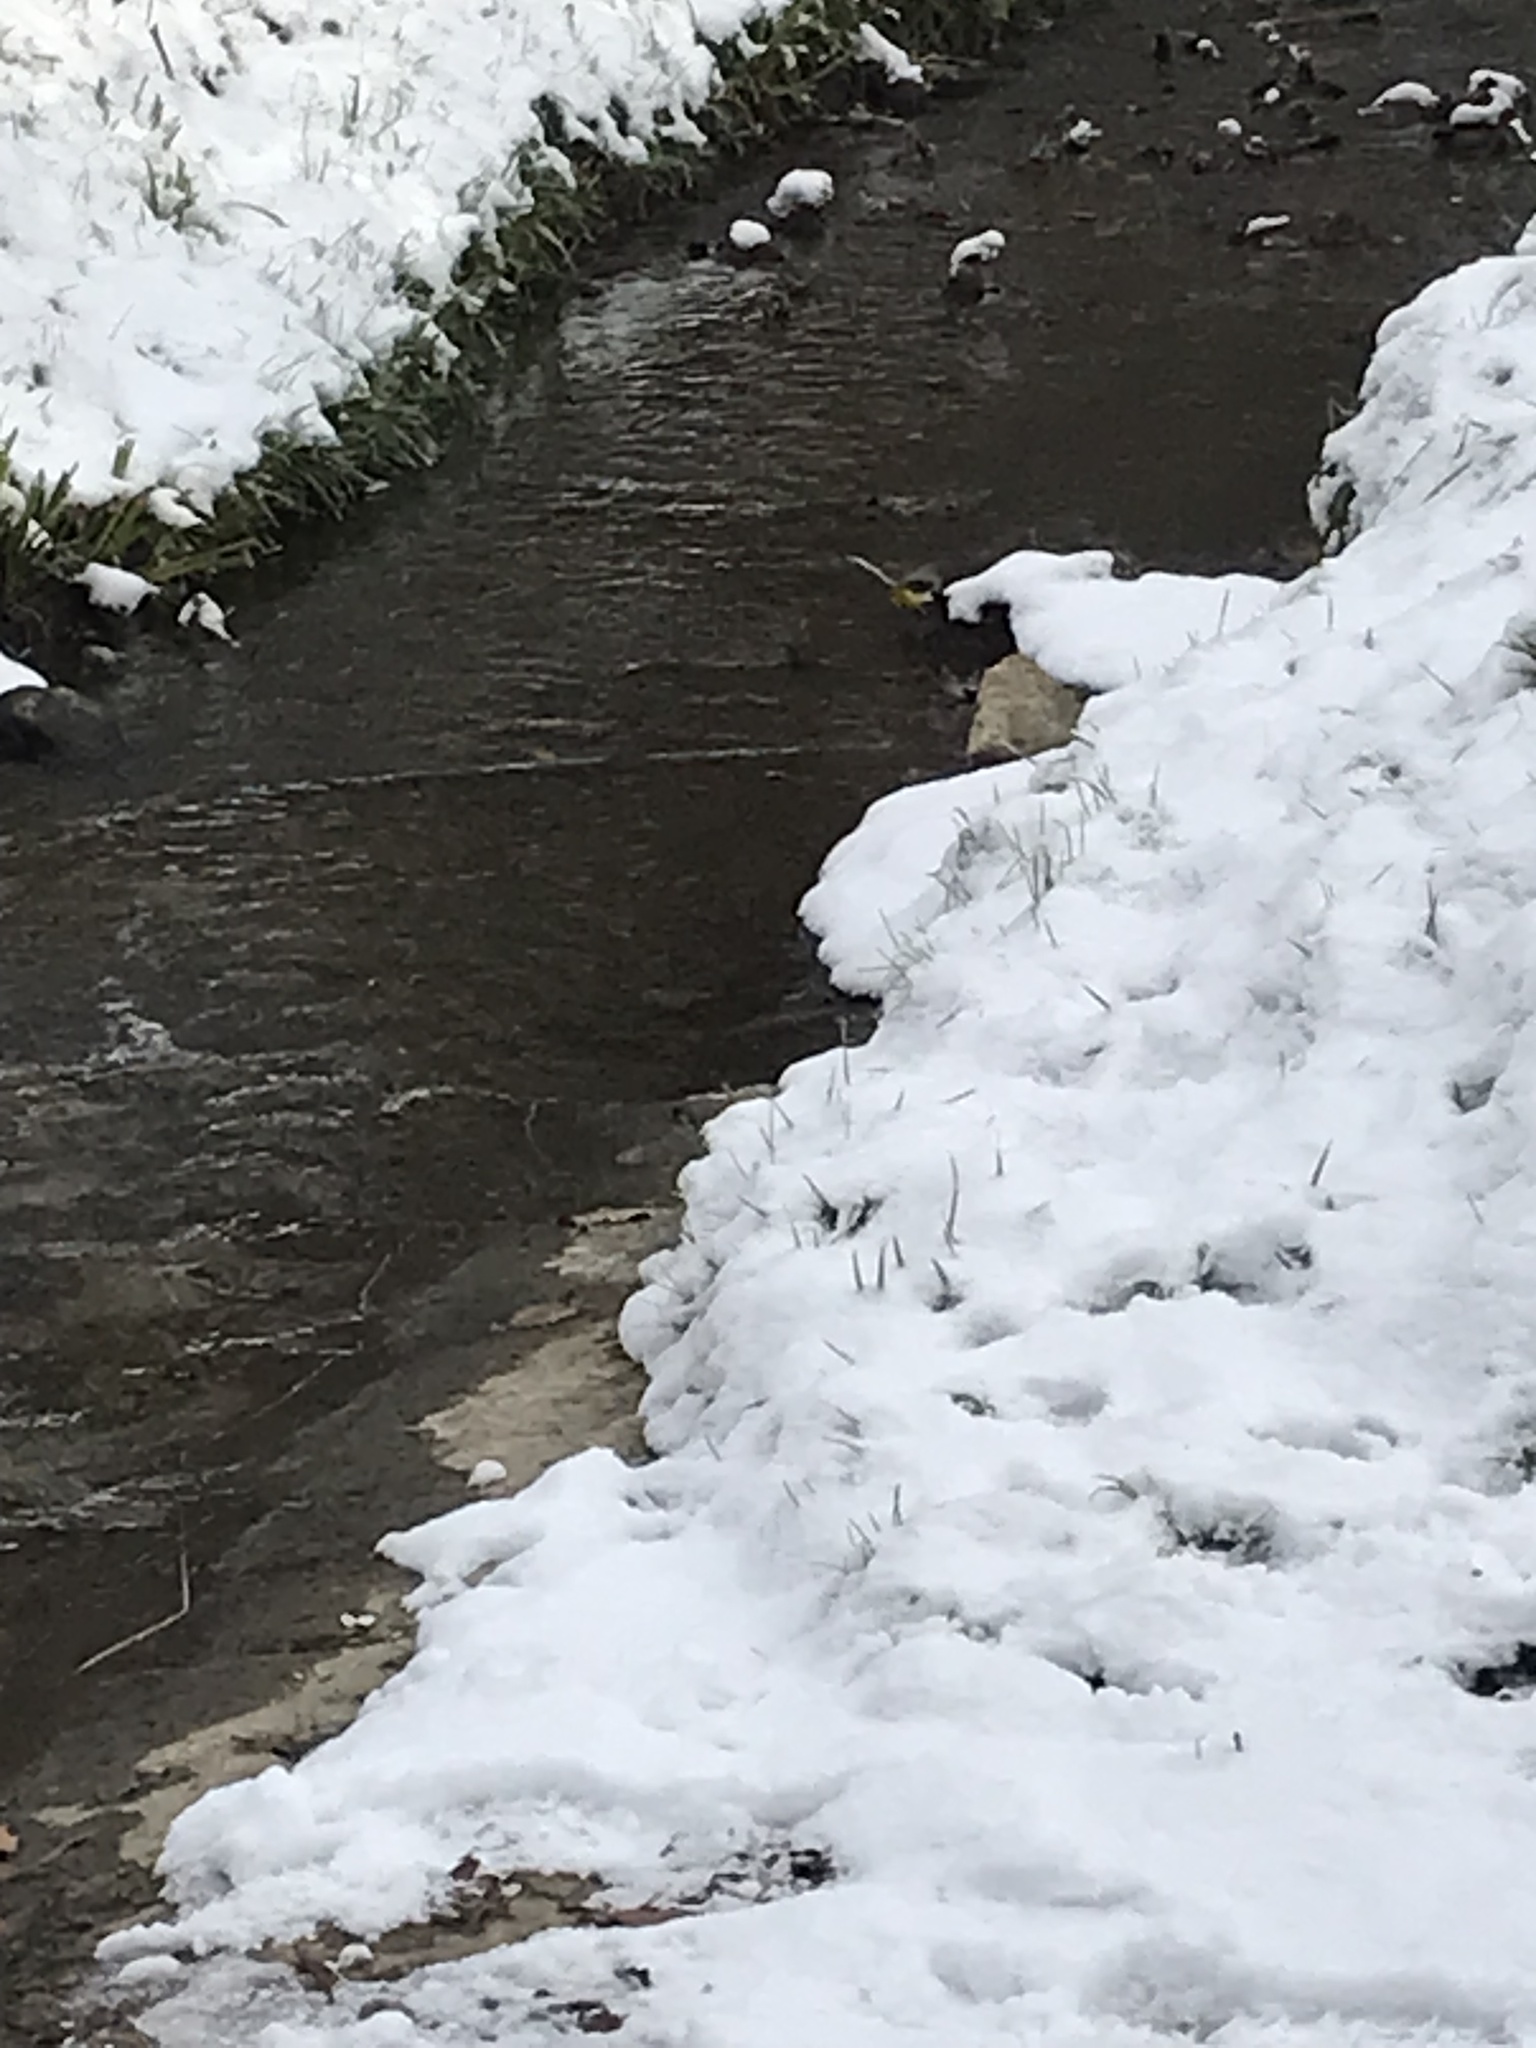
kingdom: Animalia
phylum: Chordata
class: Aves
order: Passeriformes
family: Motacillidae
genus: Motacilla
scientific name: Motacilla cinerea
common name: Grey wagtail
